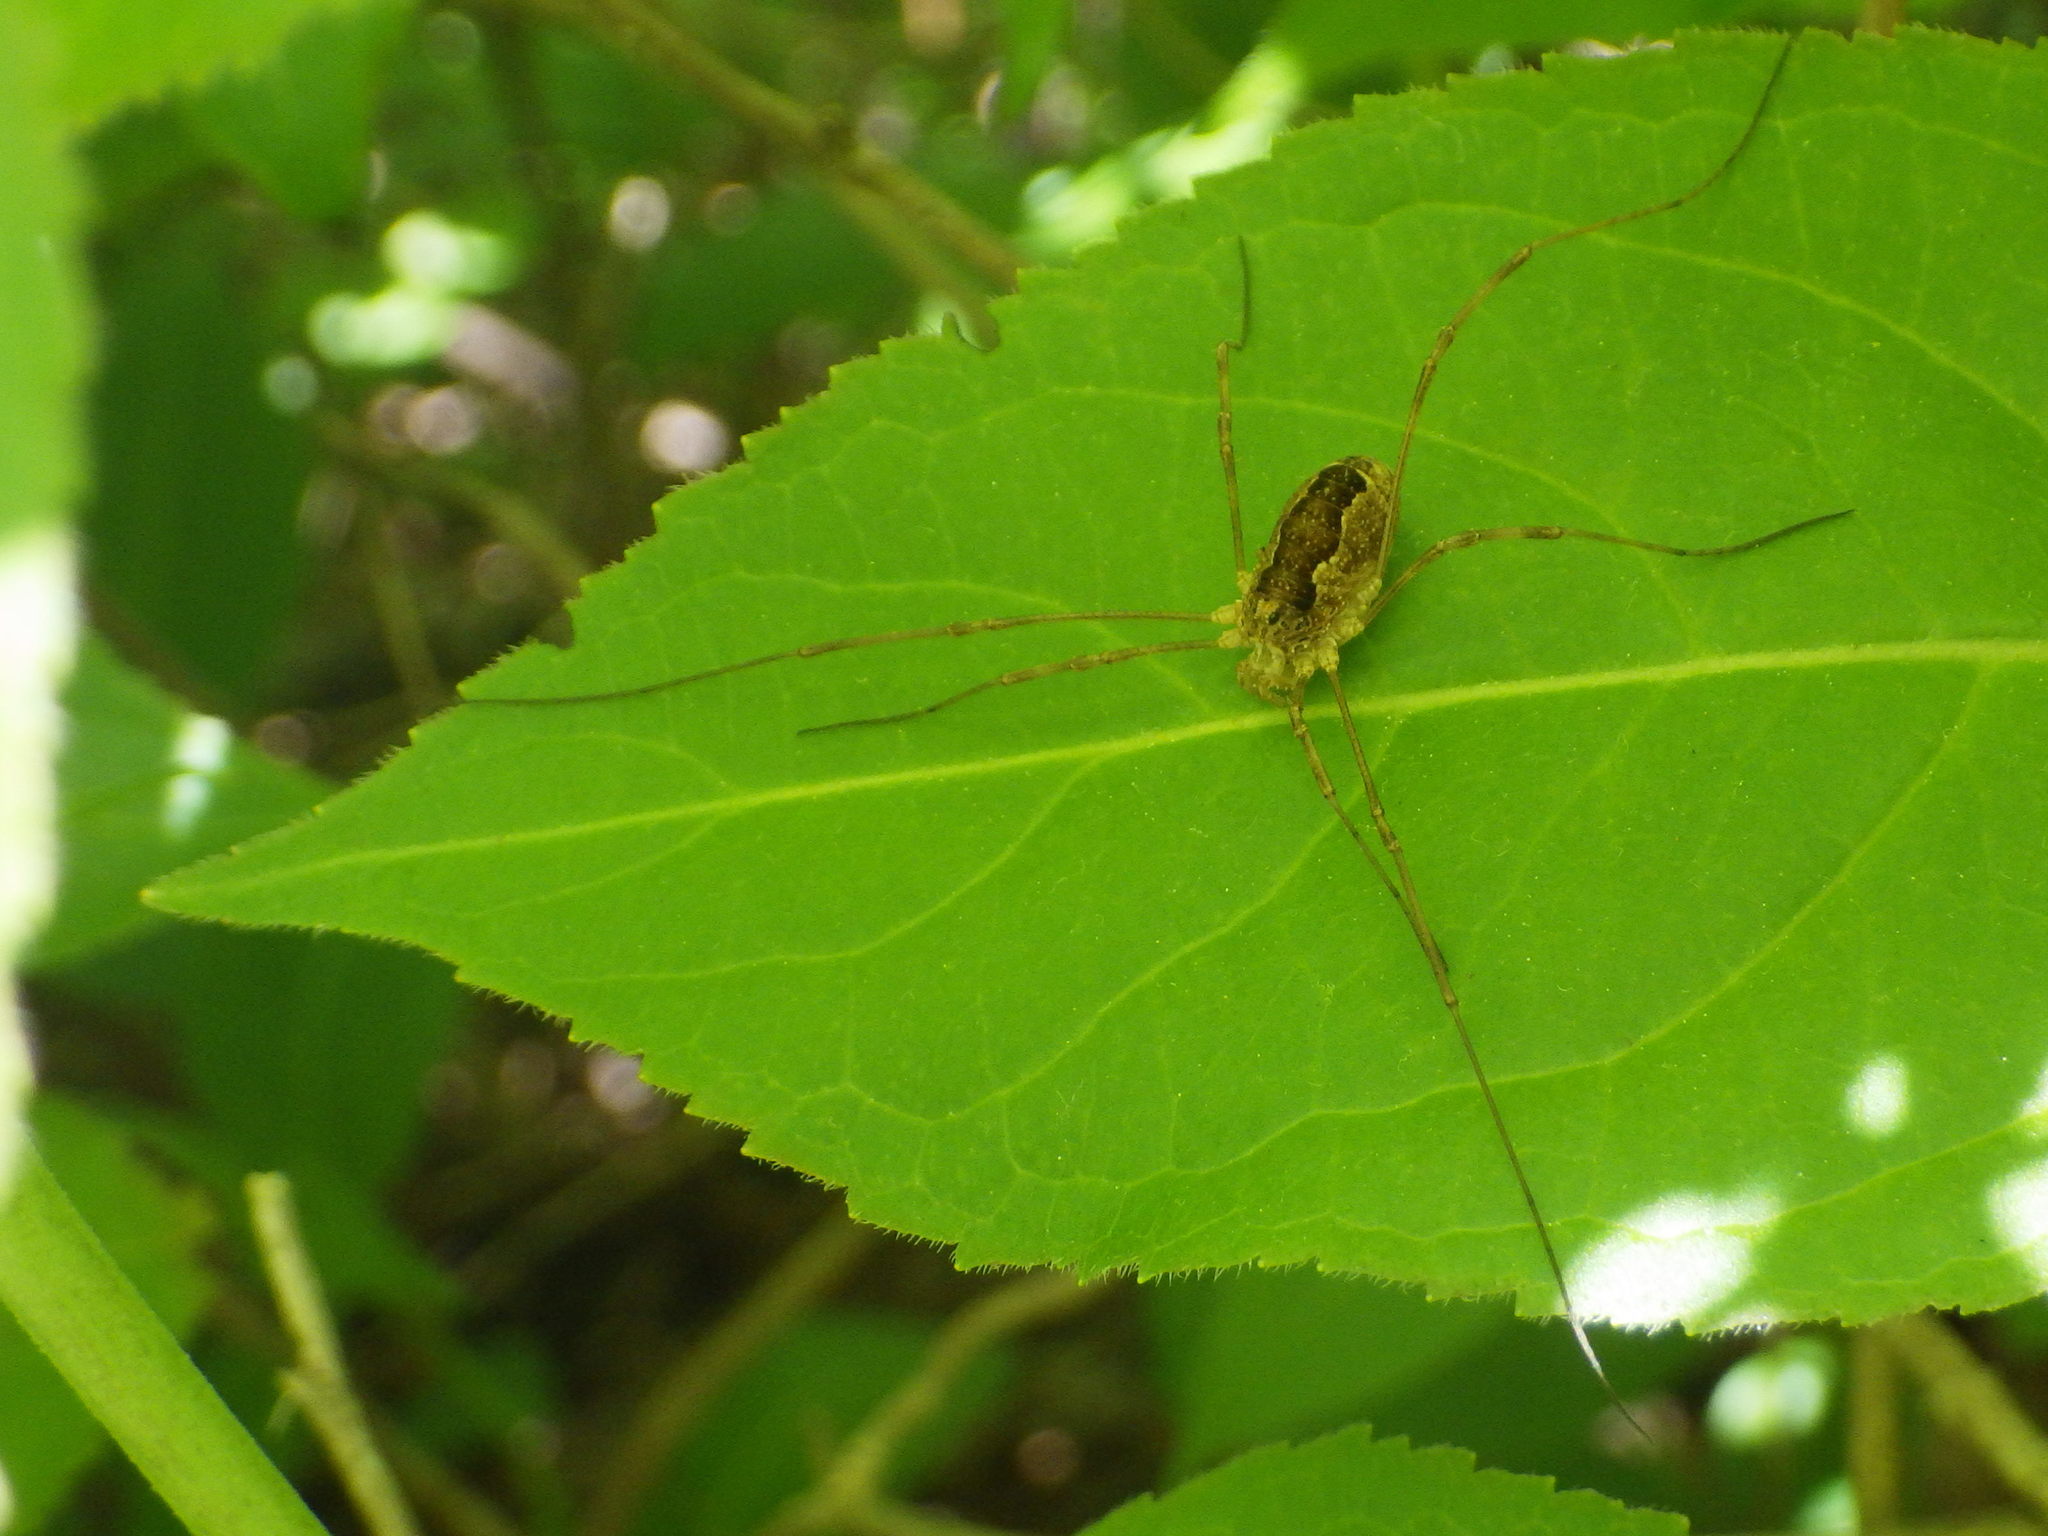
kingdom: Animalia
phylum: Arthropoda
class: Arachnida
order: Opiliones
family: Phalangiidae
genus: Rilaena
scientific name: Rilaena triangularis
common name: Spring harvestman
